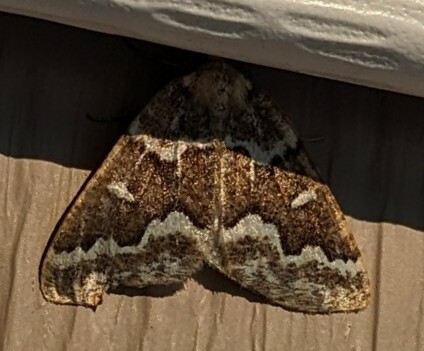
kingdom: Animalia
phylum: Arthropoda
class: Insecta
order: Lepidoptera
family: Geometridae
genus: Caripeta
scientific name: Caripeta divisata
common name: Gray spruce looper
